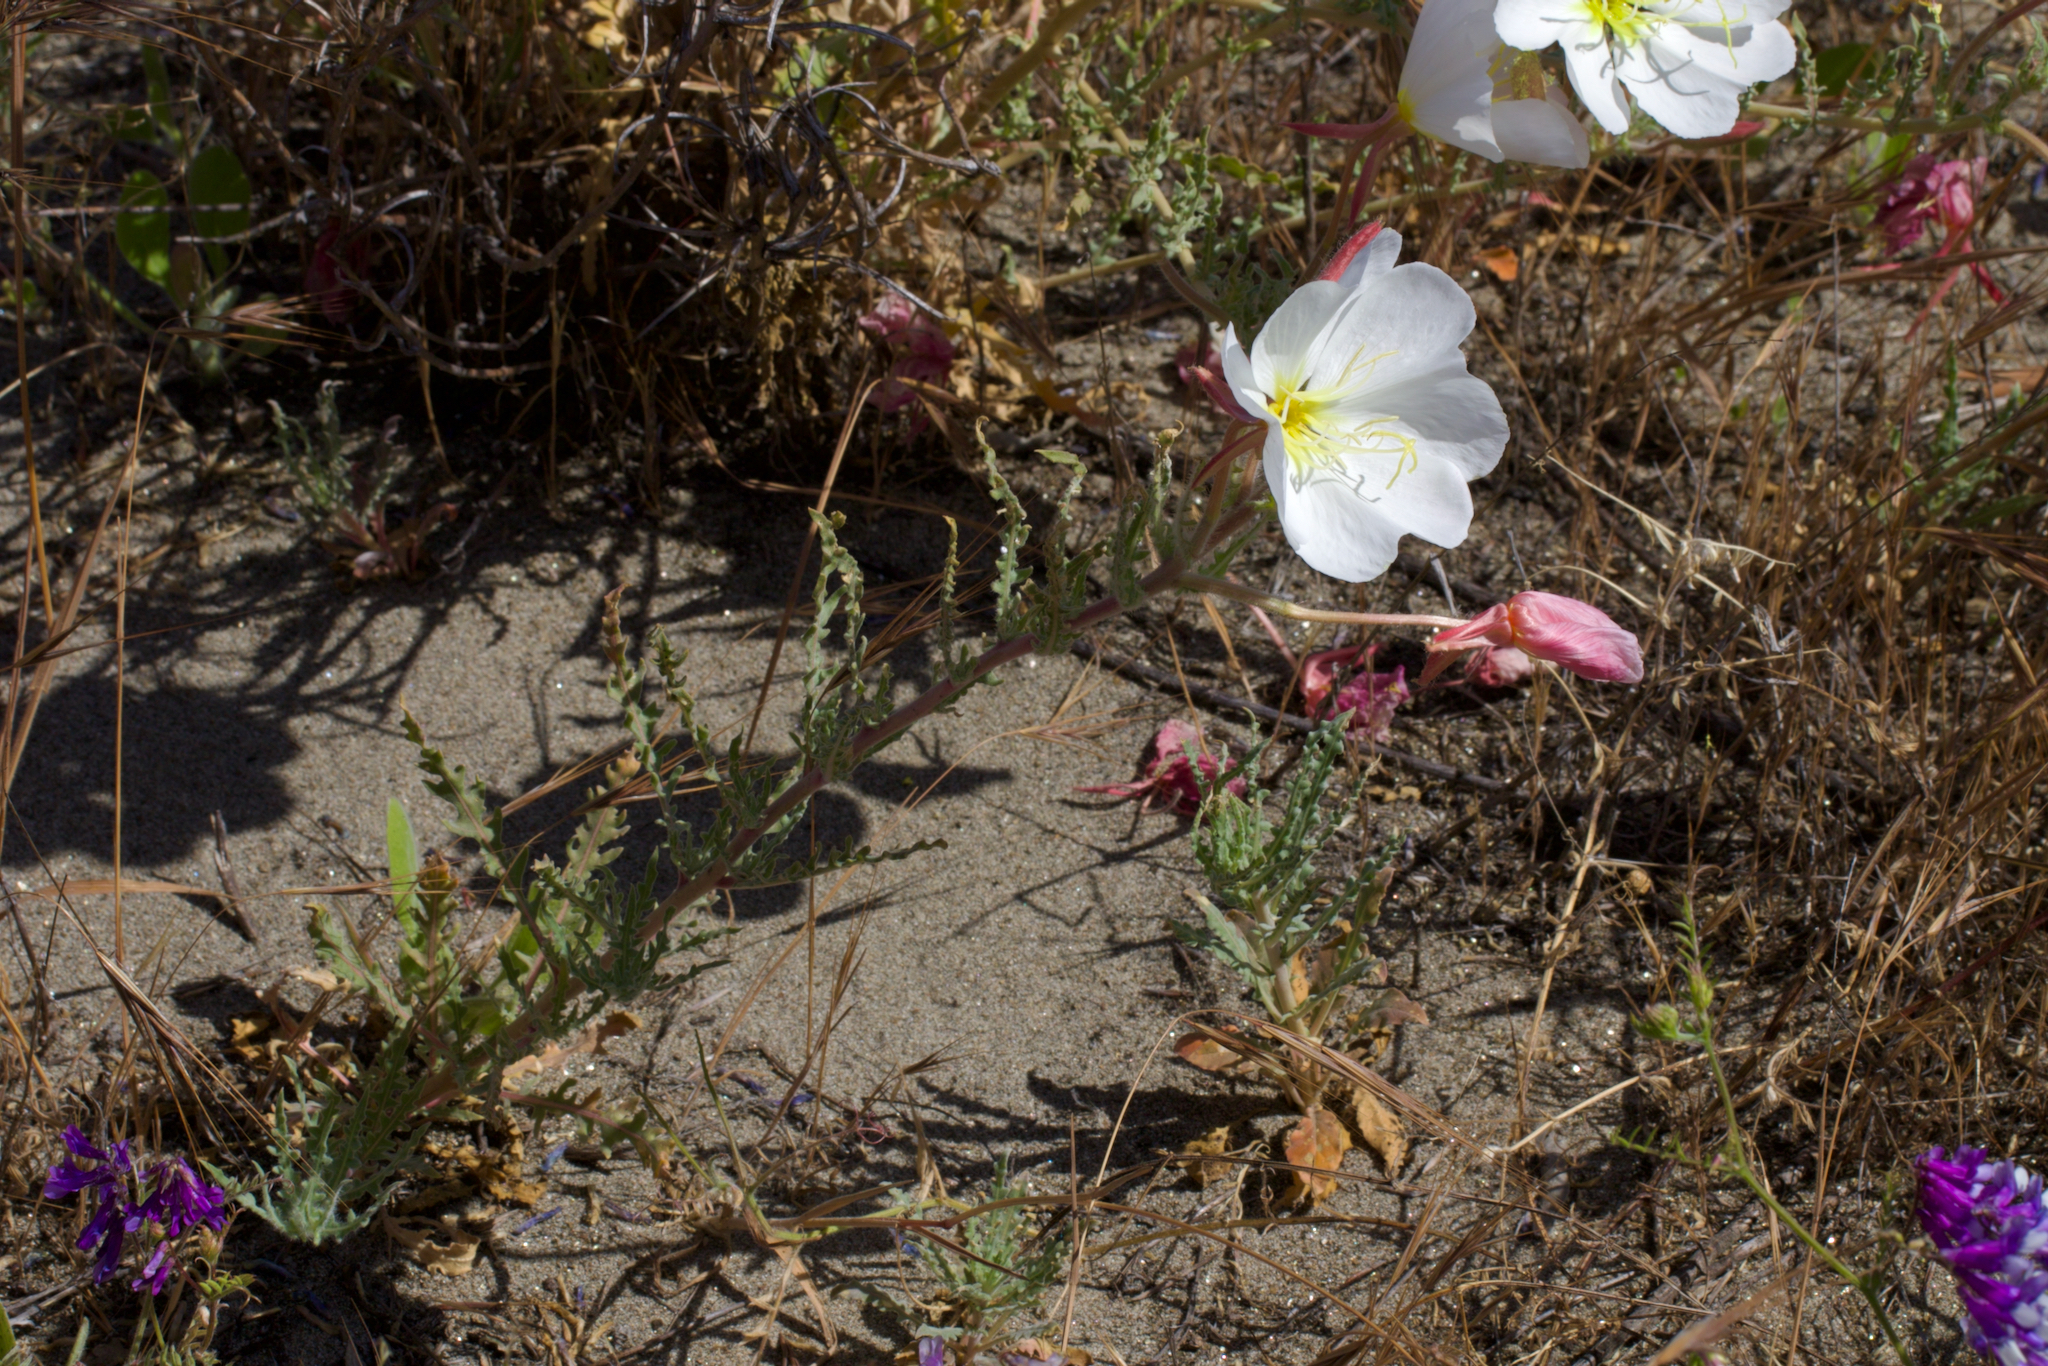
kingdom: Plantae
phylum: Tracheophyta
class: Magnoliopsida
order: Myrtales
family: Onagraceae
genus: Oenothera
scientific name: Oenothera deltoides
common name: Basket evening-primrose
